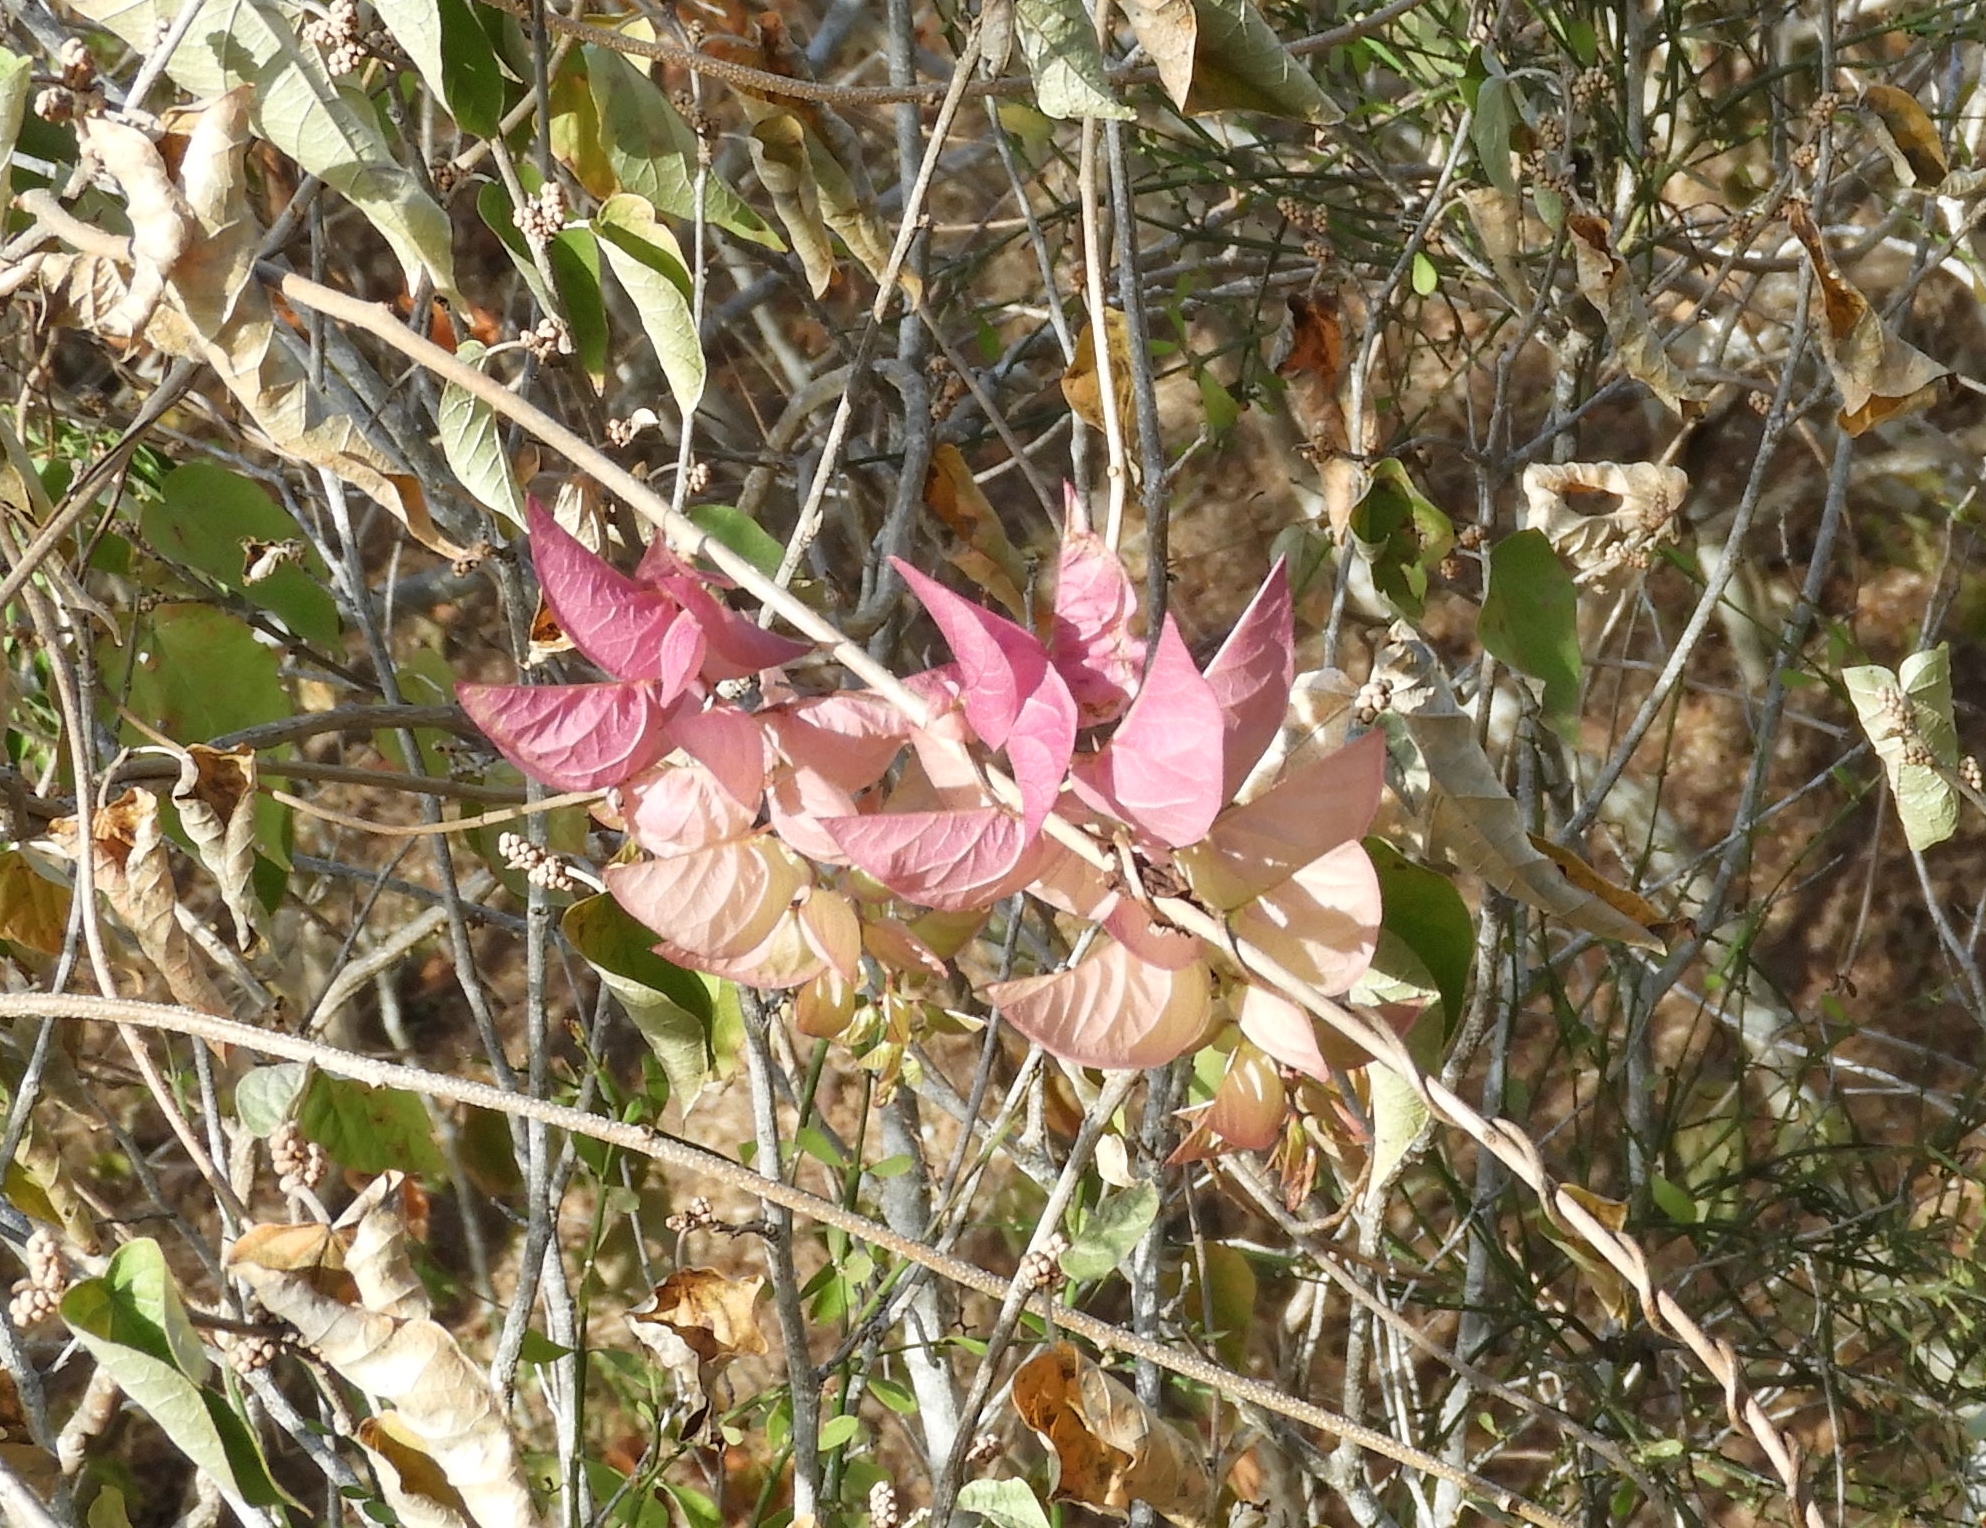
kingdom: Plantae
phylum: Tracheophyta
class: Magnoliopsida
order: Solanales
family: Convolvulaceae
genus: Ipomoea
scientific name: Ipomoea bracteata
